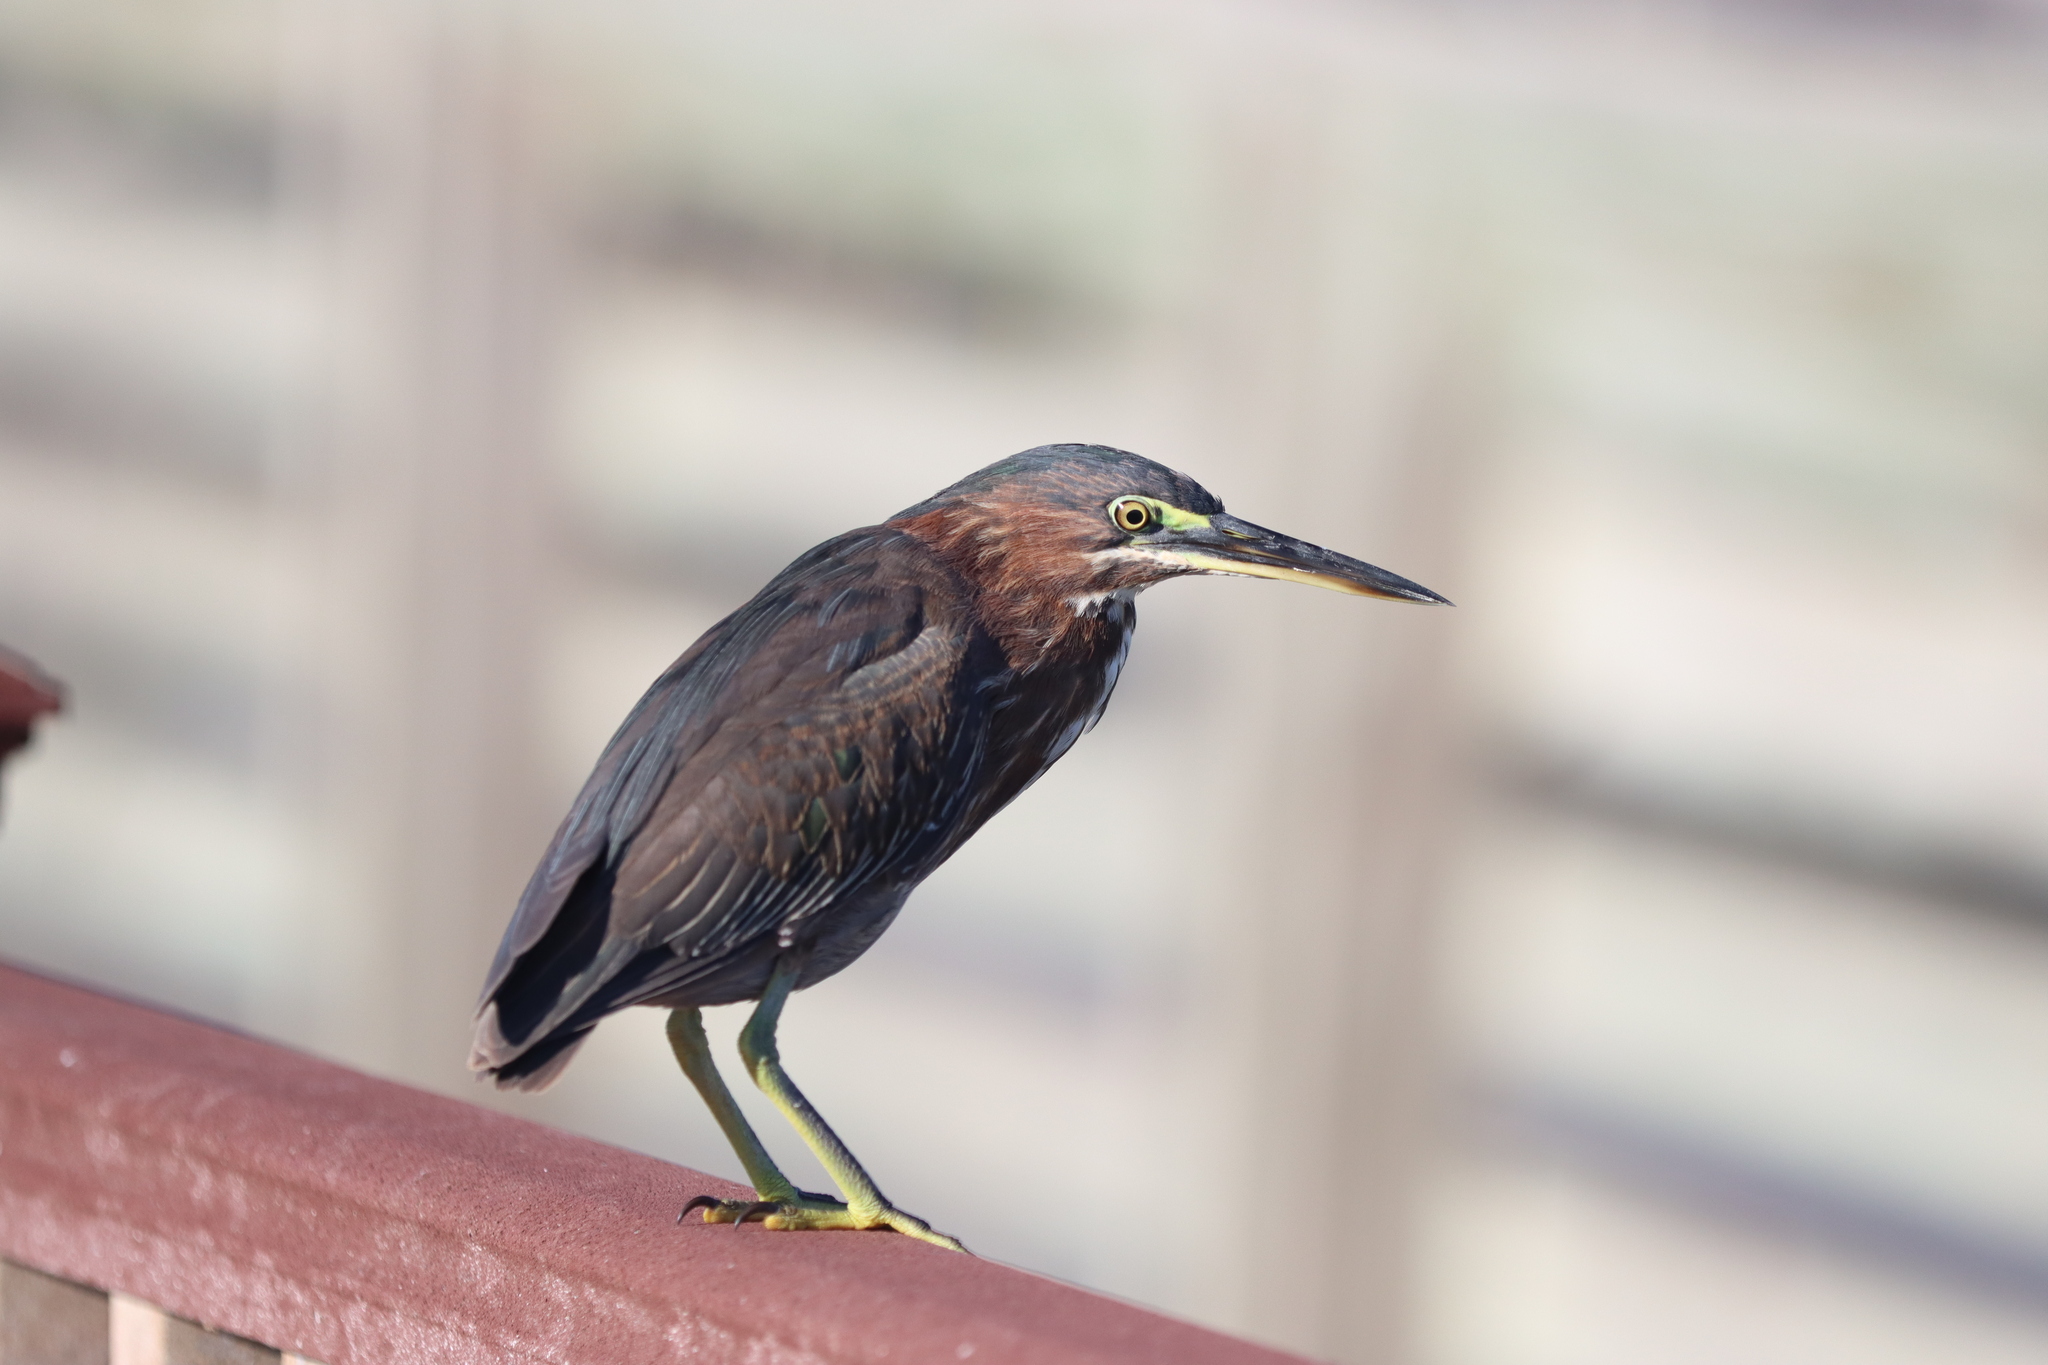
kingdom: Animalia
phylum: Chordata
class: Aves
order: Pelecaniformes
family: Ardeidae
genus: Butorides
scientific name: Butorides virescens
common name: Green heron
